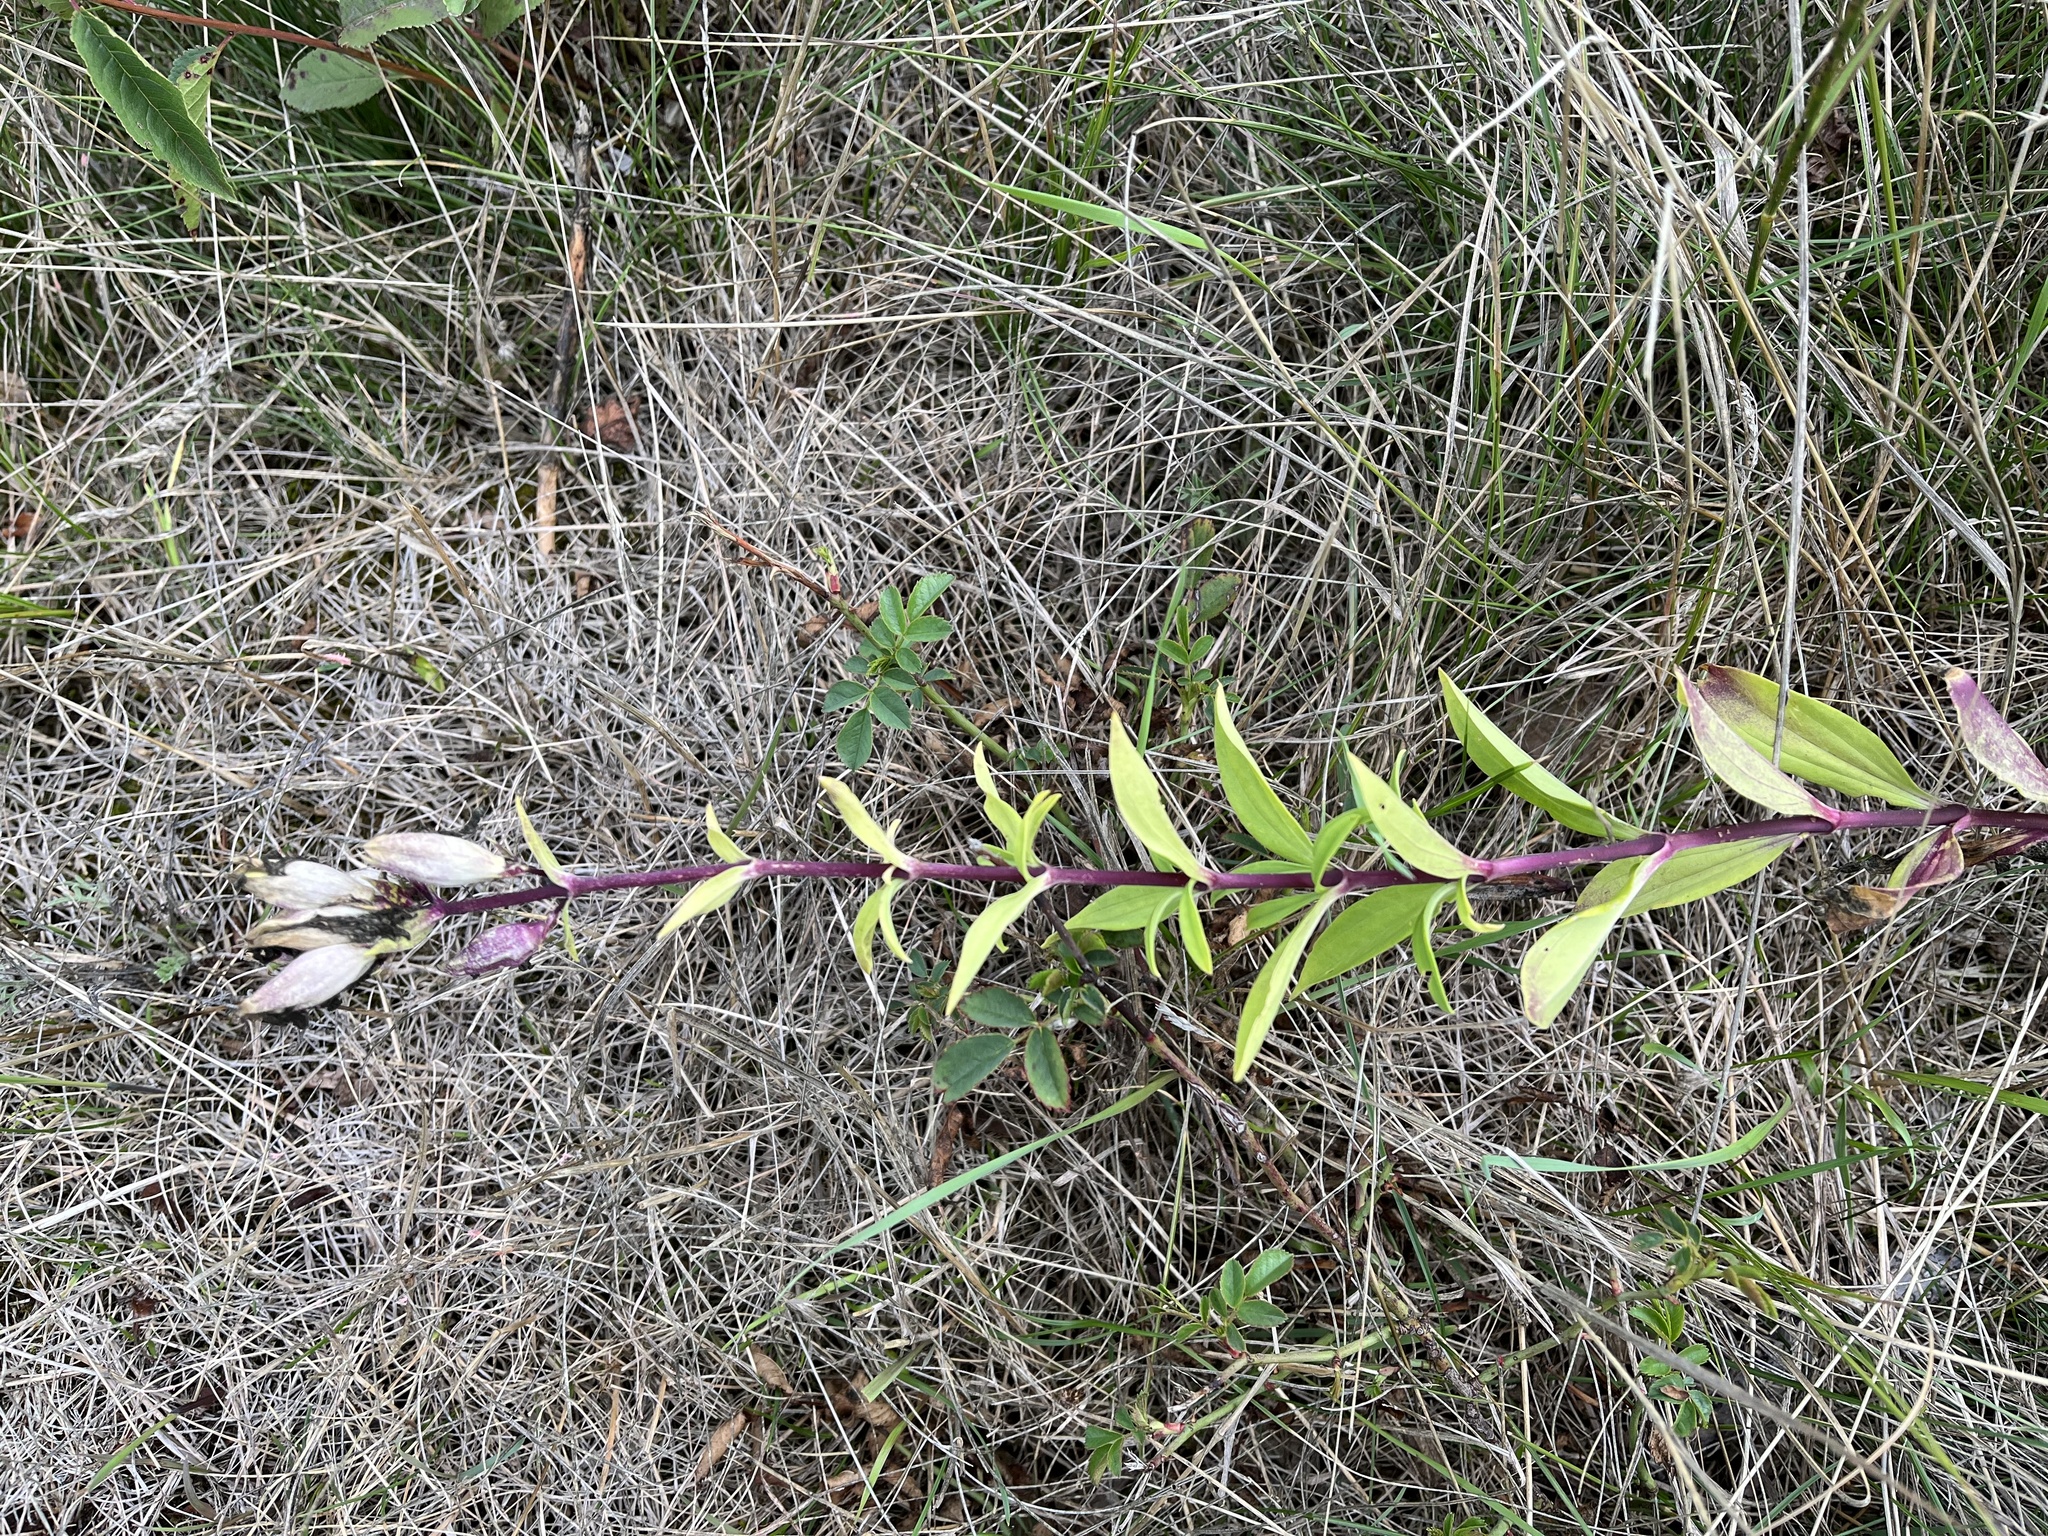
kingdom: Plantae
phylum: Tracheophyta
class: Magnoliopsida
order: Caryophyllales
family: Caryophyllaceae
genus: Saponaria
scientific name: Saponaria officinalis
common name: Soapwort
